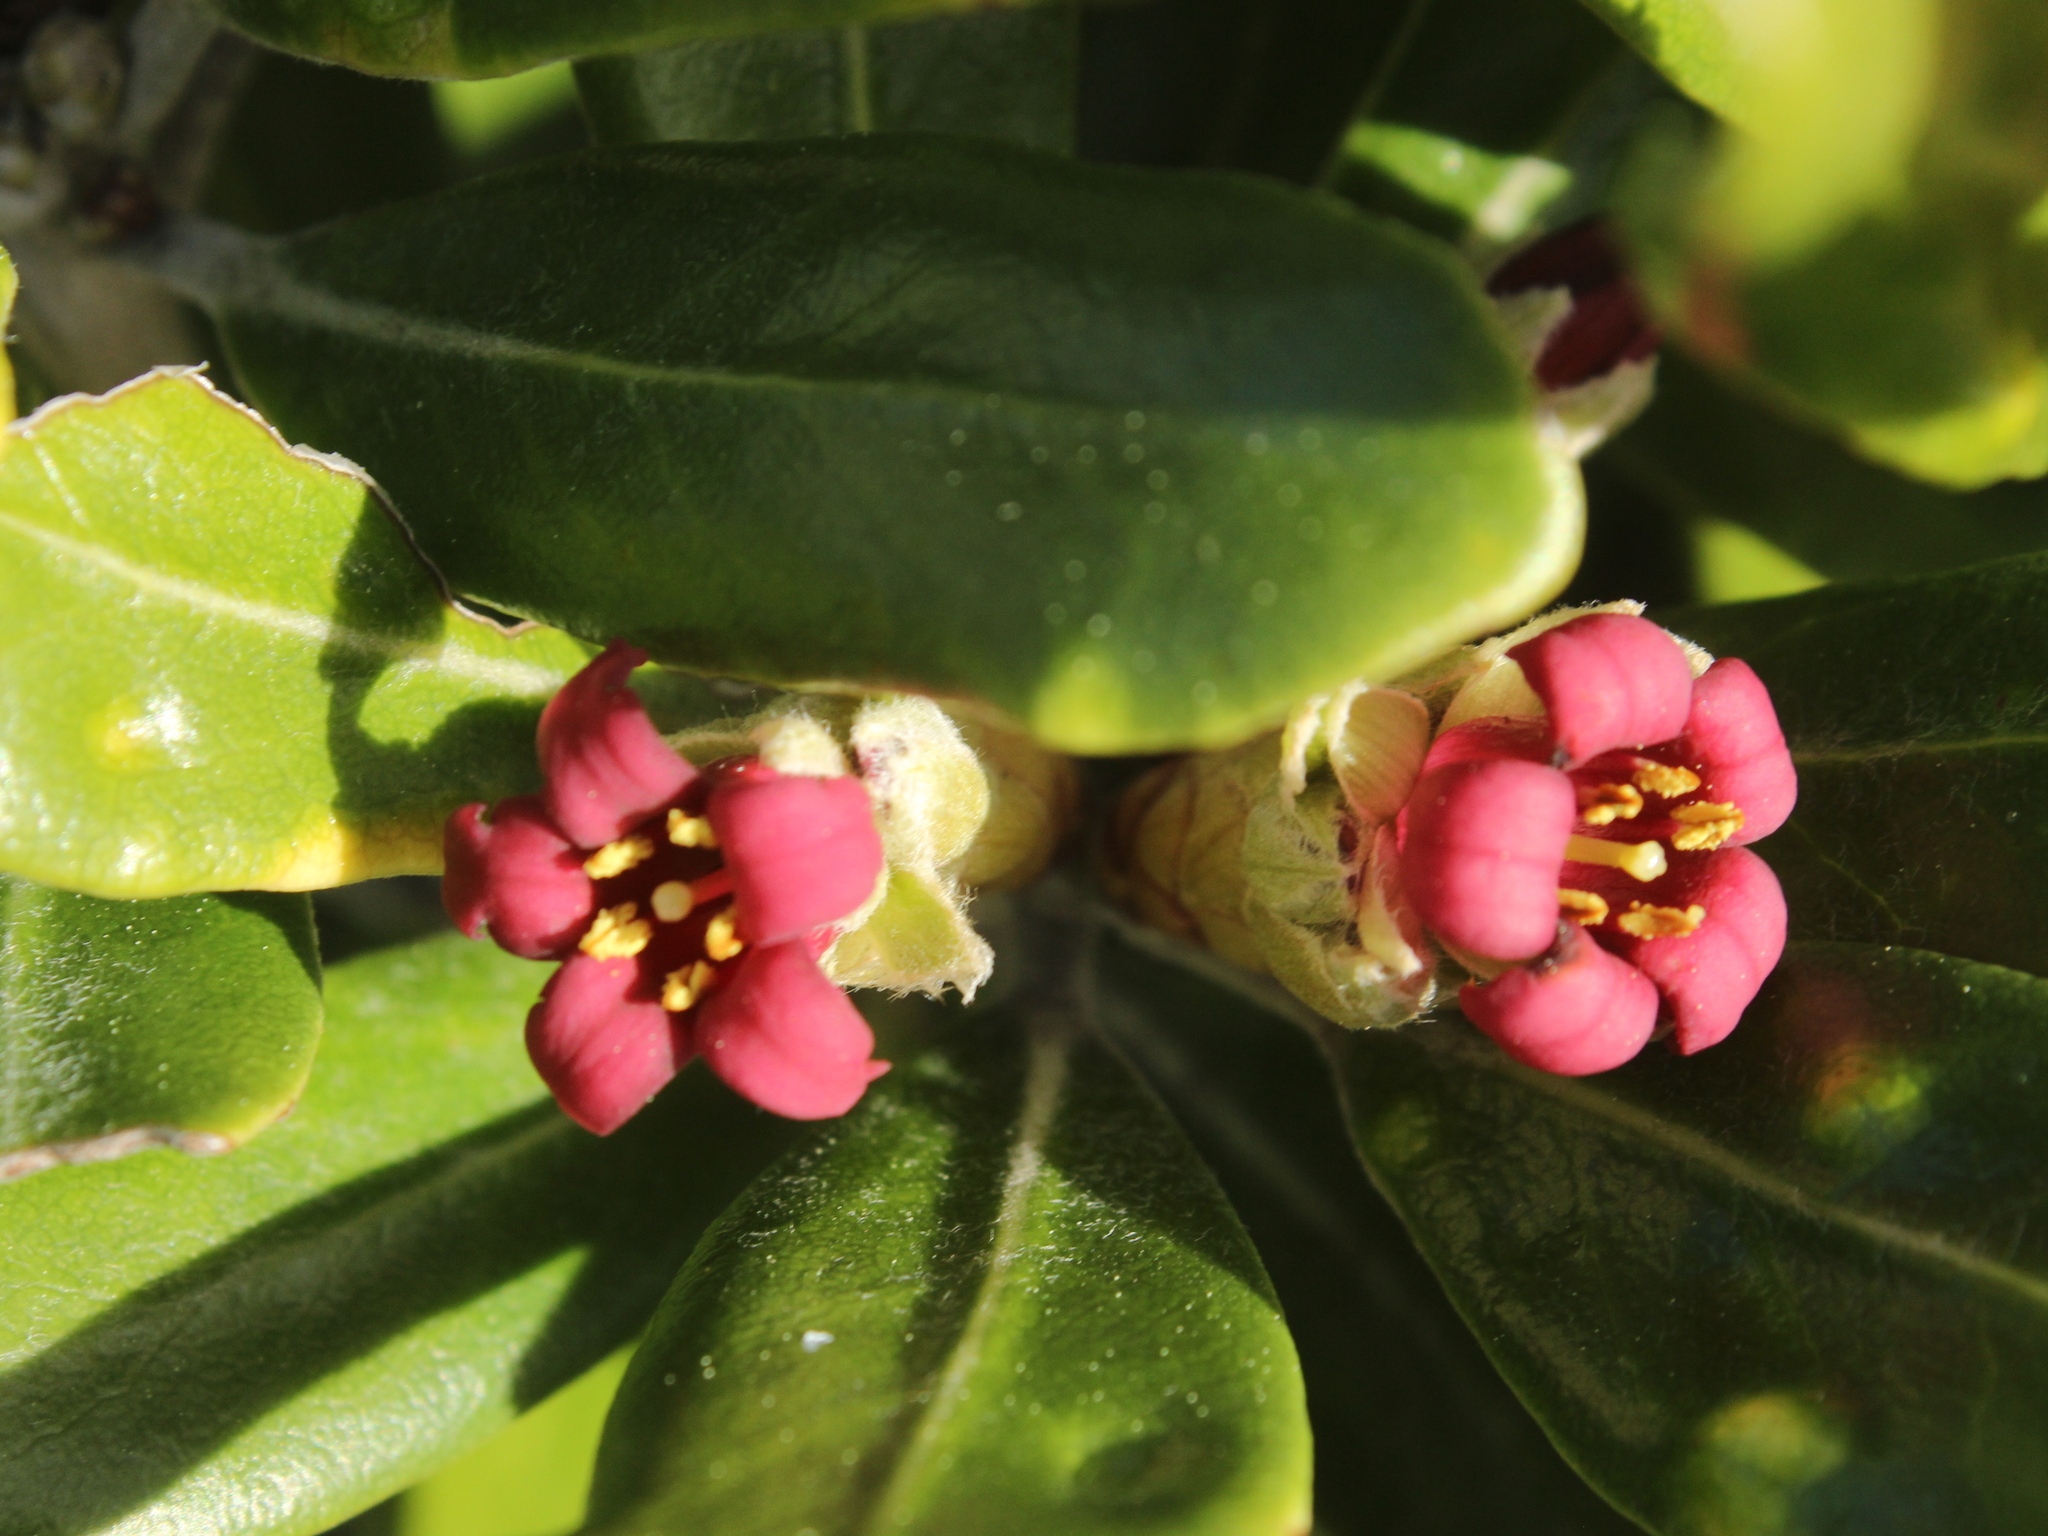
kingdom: Plantae
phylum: Tracheophyta
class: Magnoliopsida
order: Apiales
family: Pittosporaceae
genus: Pittosporum
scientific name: Pittosporum crassifolium
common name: Karo
